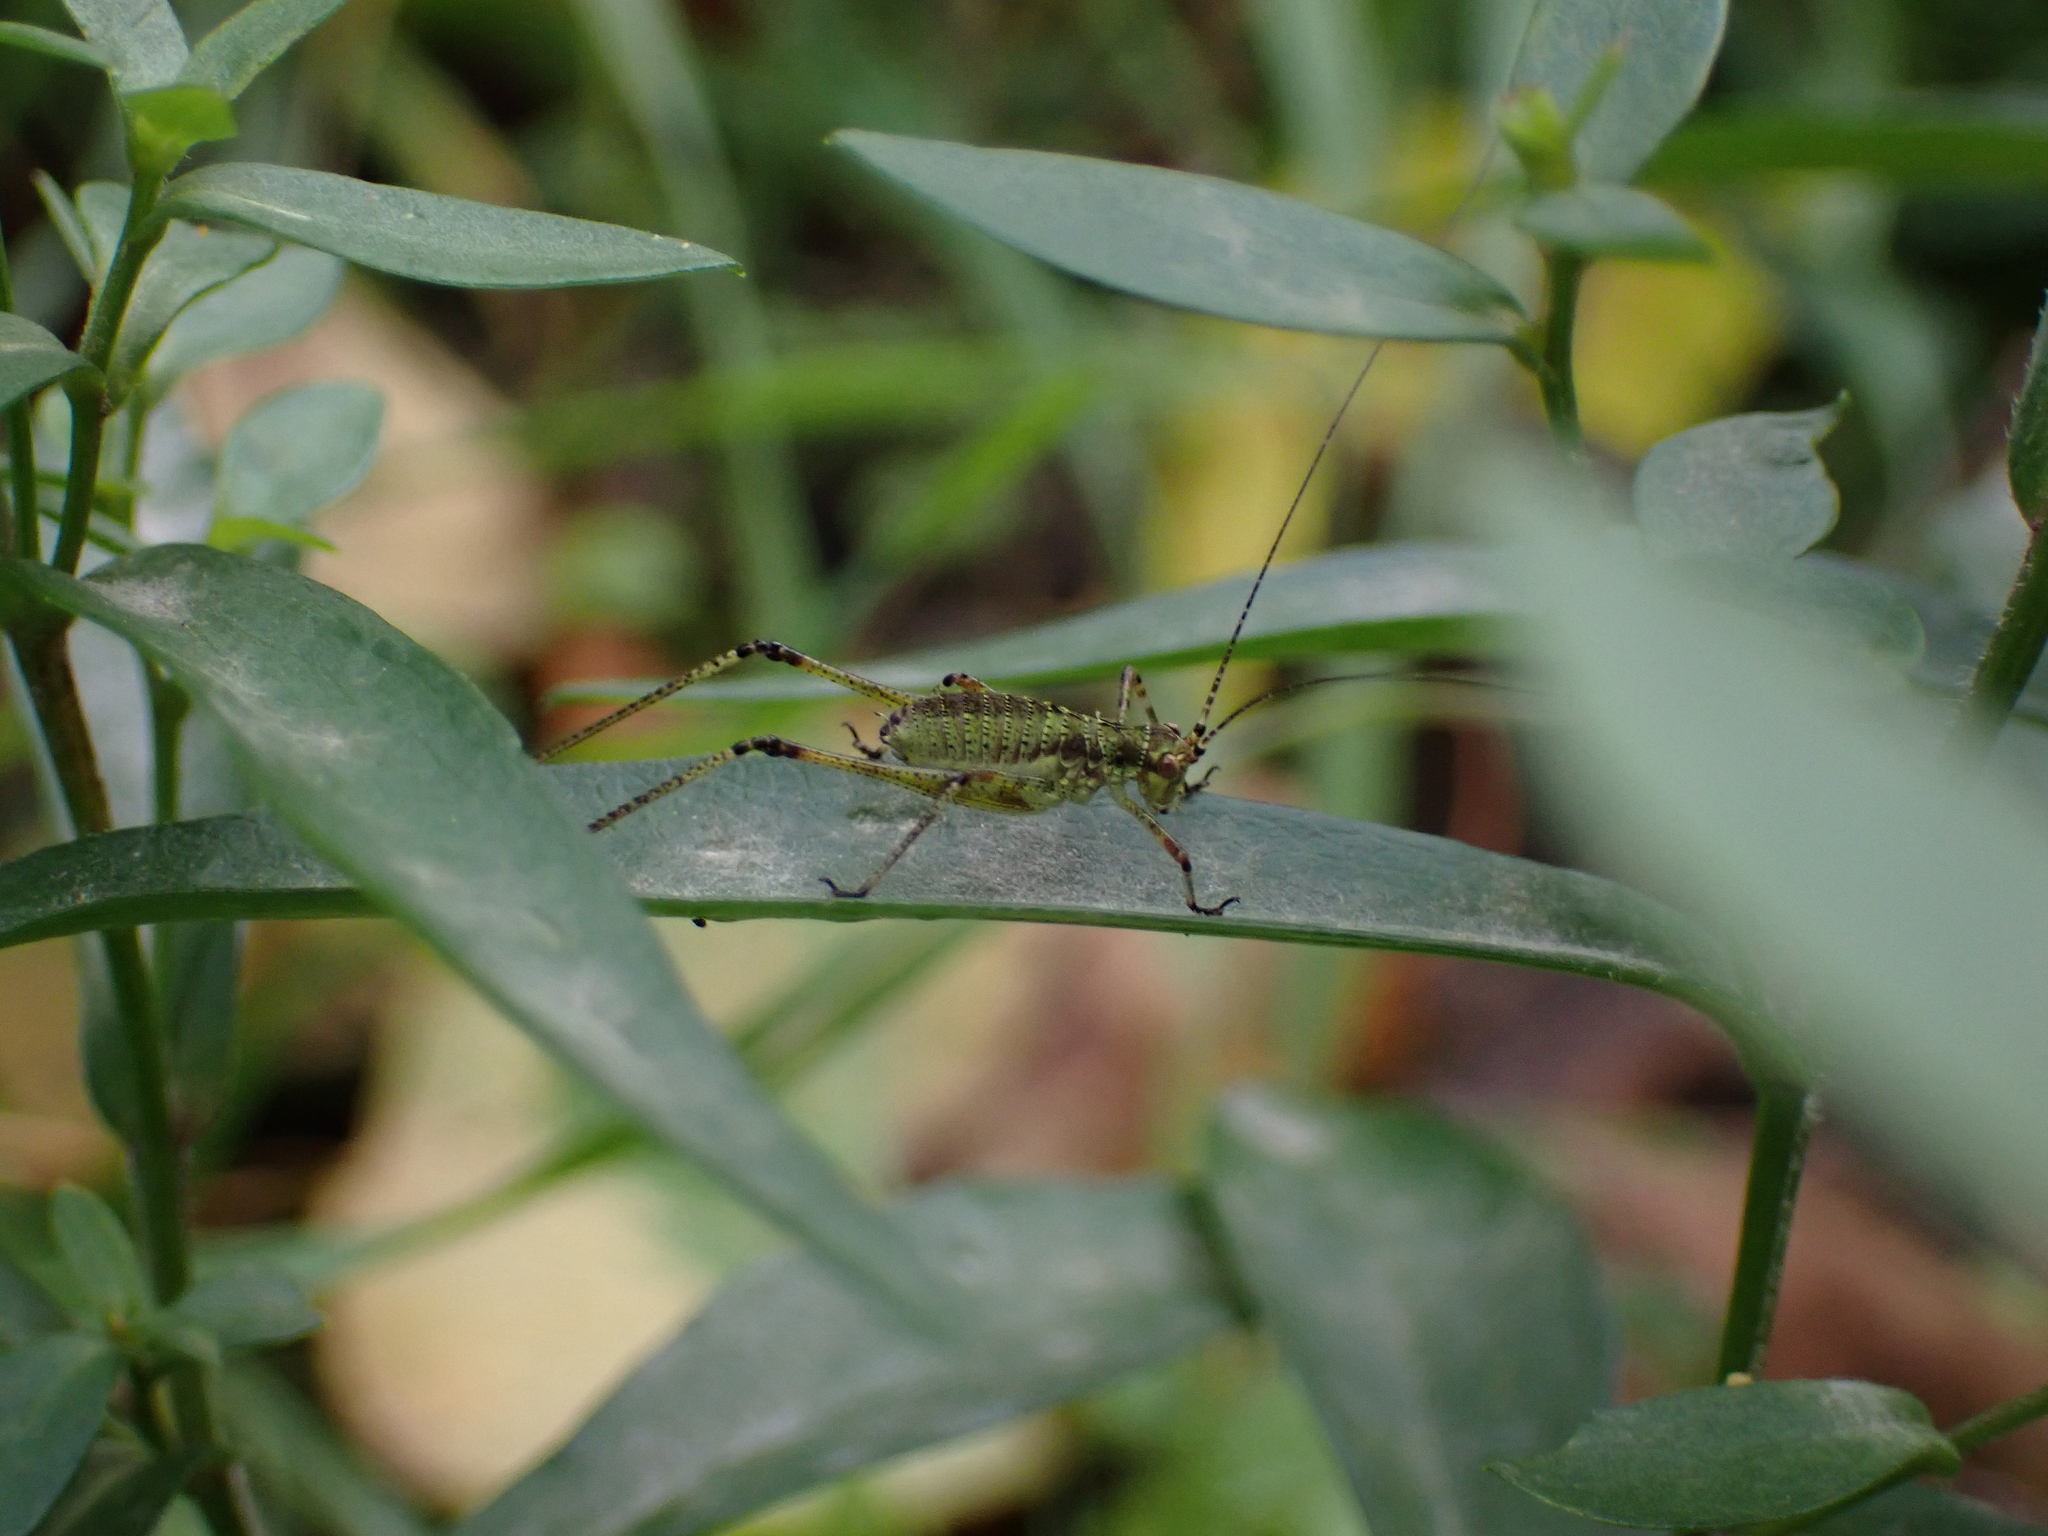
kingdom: Animalia
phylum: Arthropoda
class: Insecta
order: Orthoptera
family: Tettigoniidae
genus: Phaneroptera
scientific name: Phaneroptera nana
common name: Southern sickle bush-cricket
